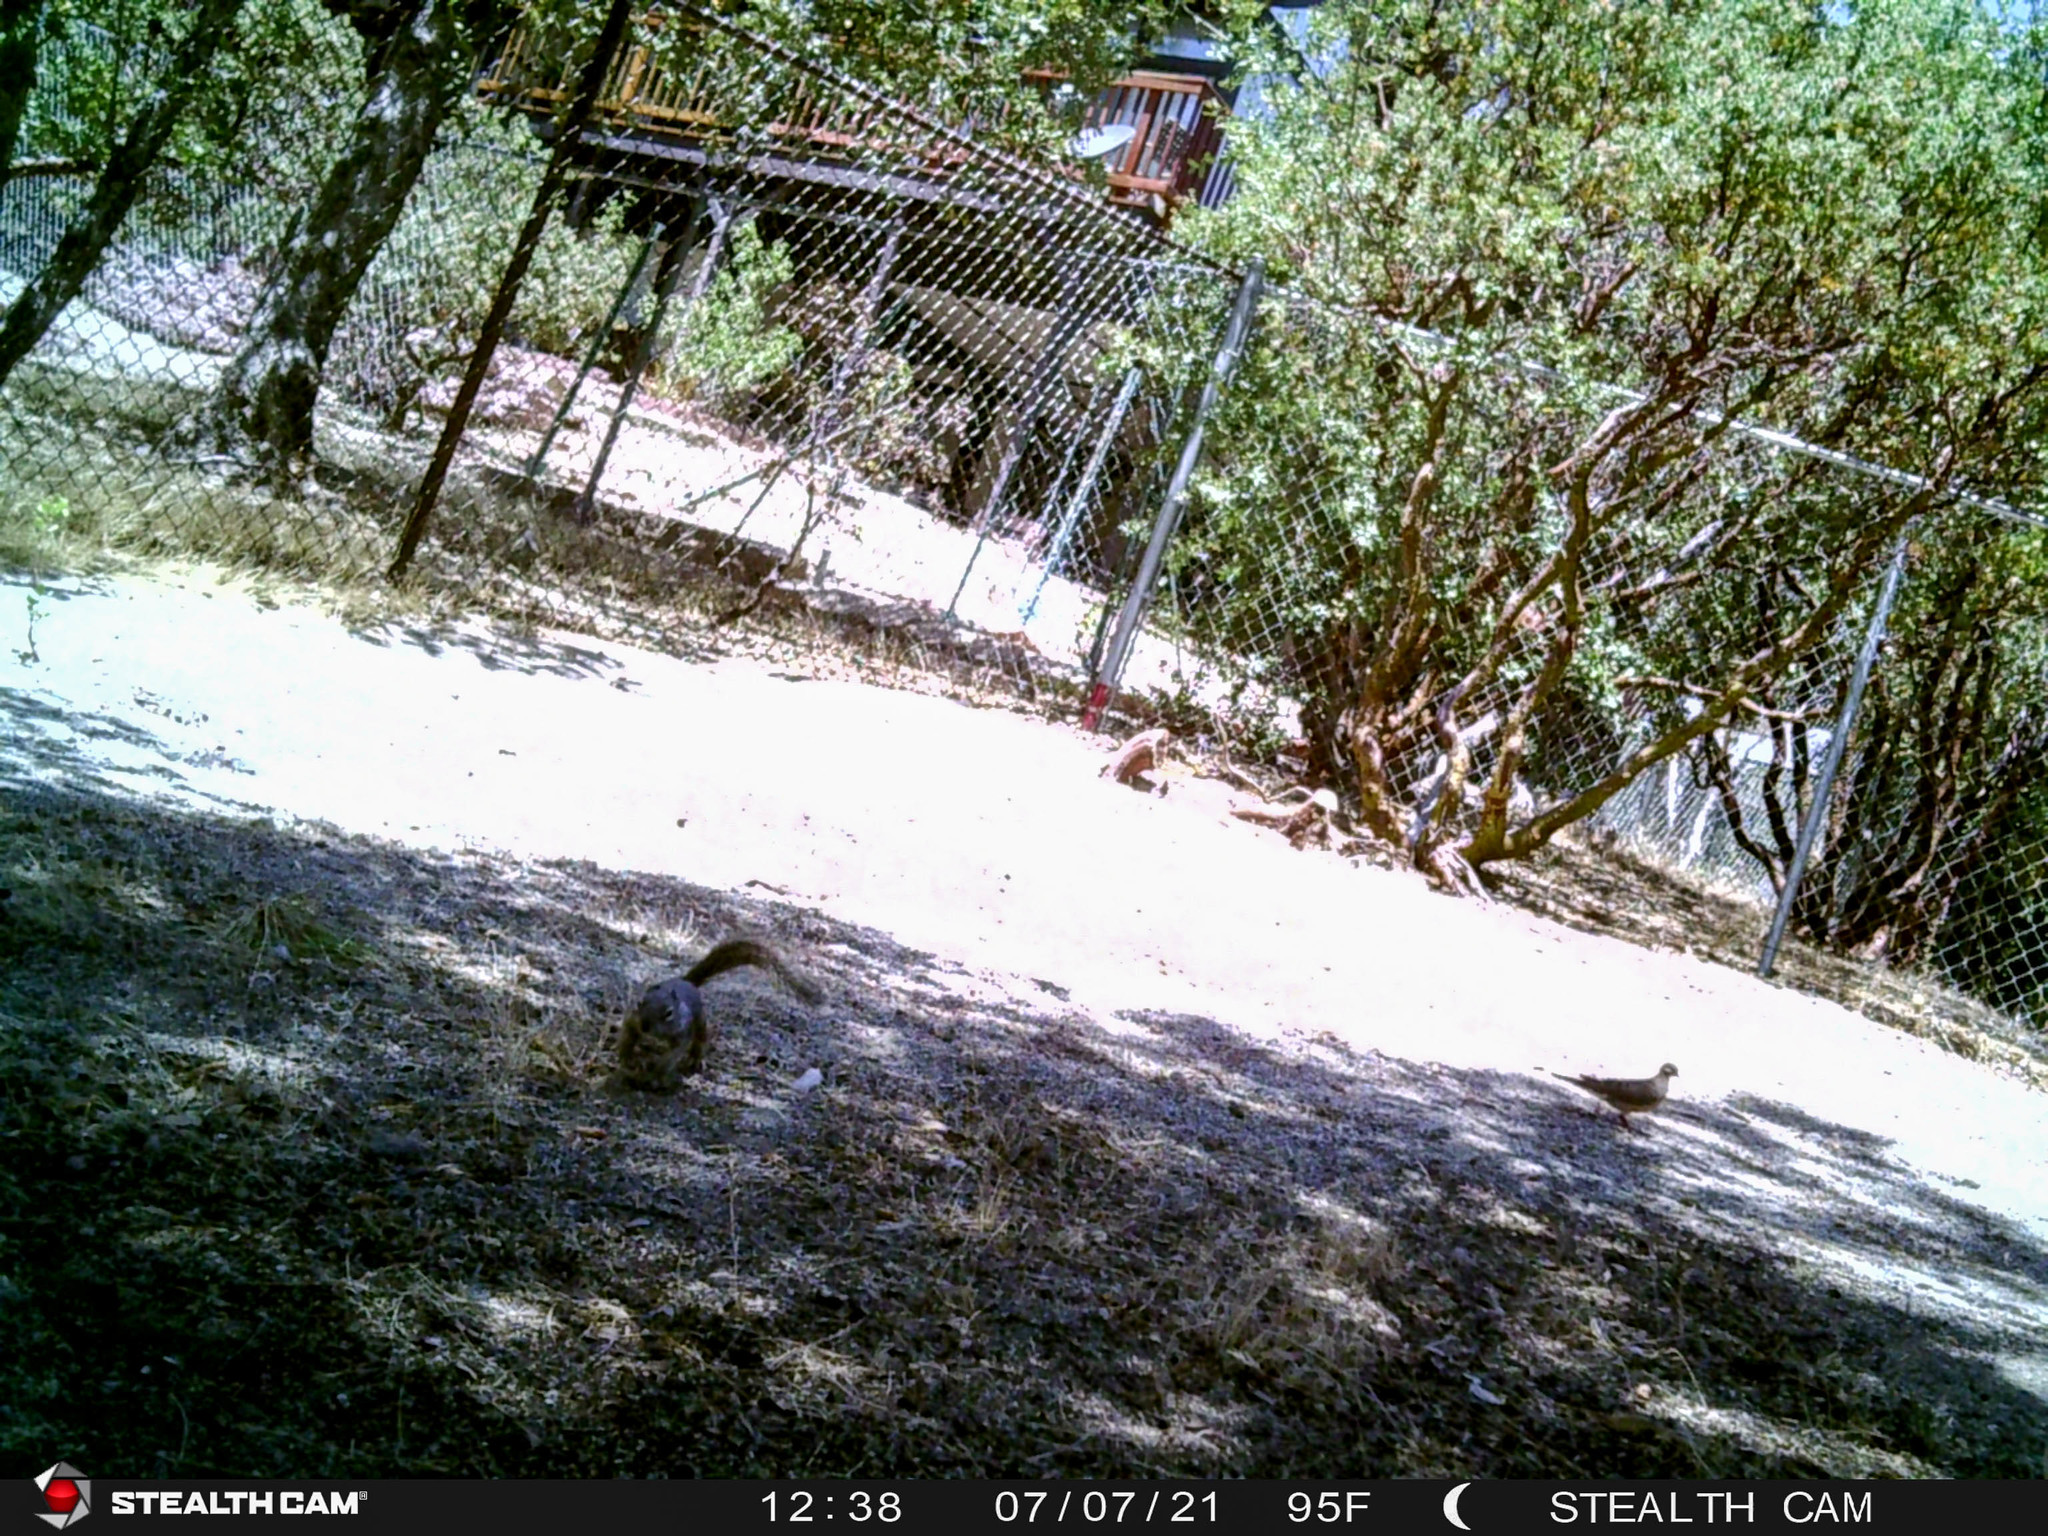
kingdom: Animalia
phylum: Chordata
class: Mammalia
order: Rodentia
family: Sciuridae
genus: Otospermophilus
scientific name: Otospermophilus beecheyi
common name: California ground squirrel
